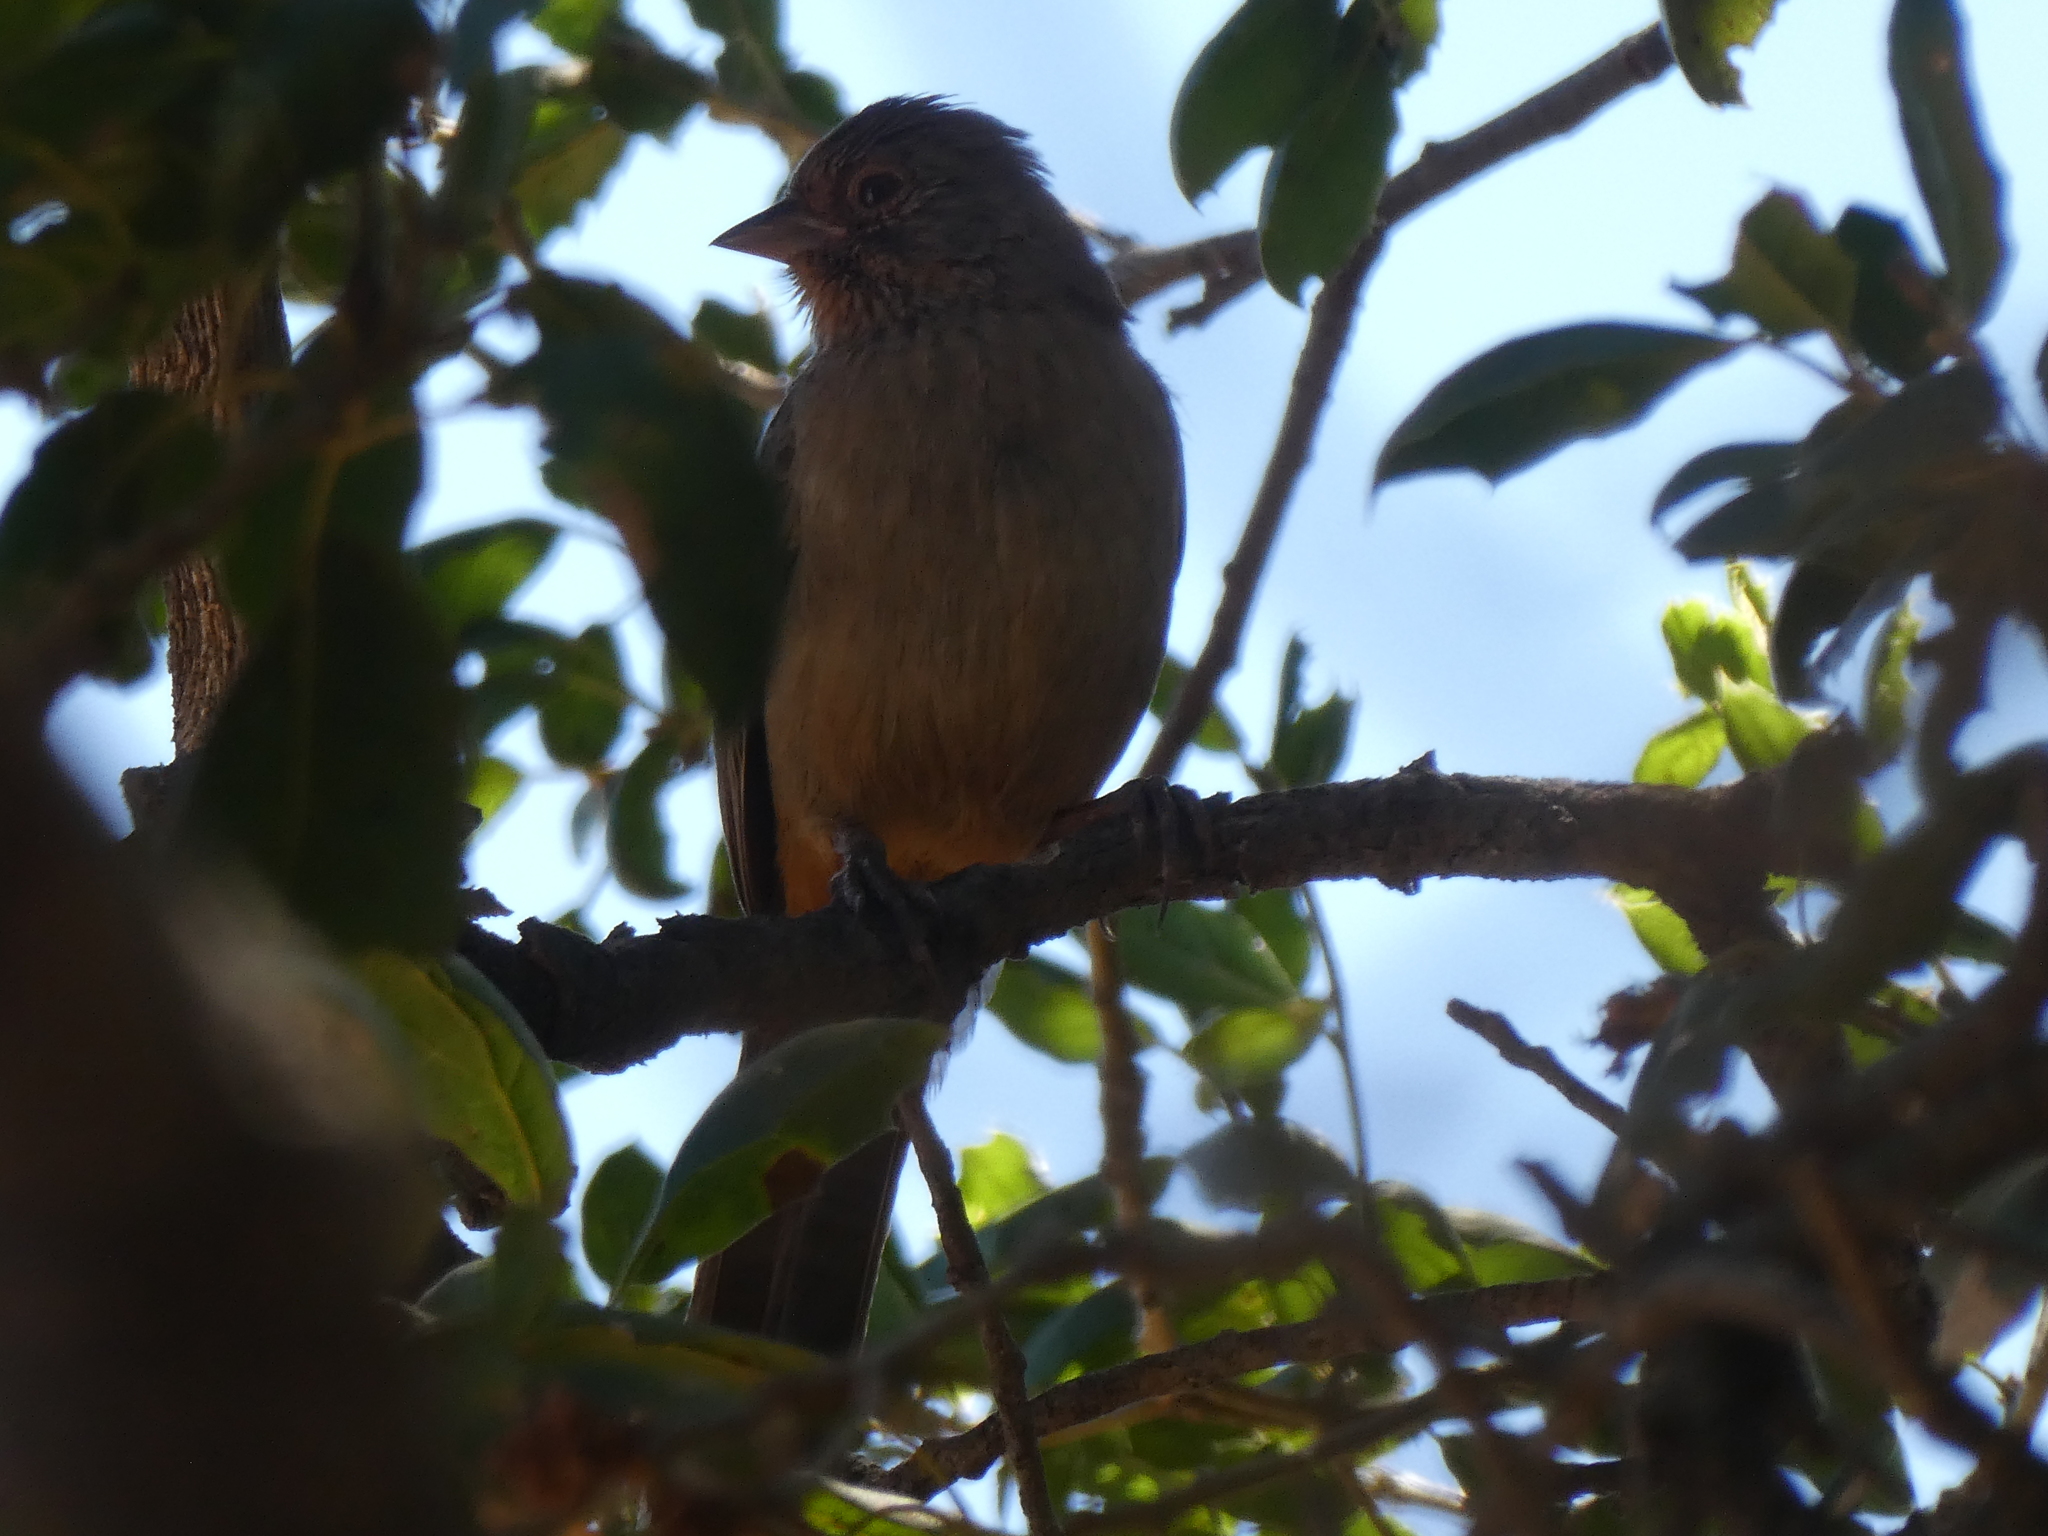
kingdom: Animalia
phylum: Chordata
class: Aves
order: Passeriformes
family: Passerellidae
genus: Melozone
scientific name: Melozone crissalis
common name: California towhee
